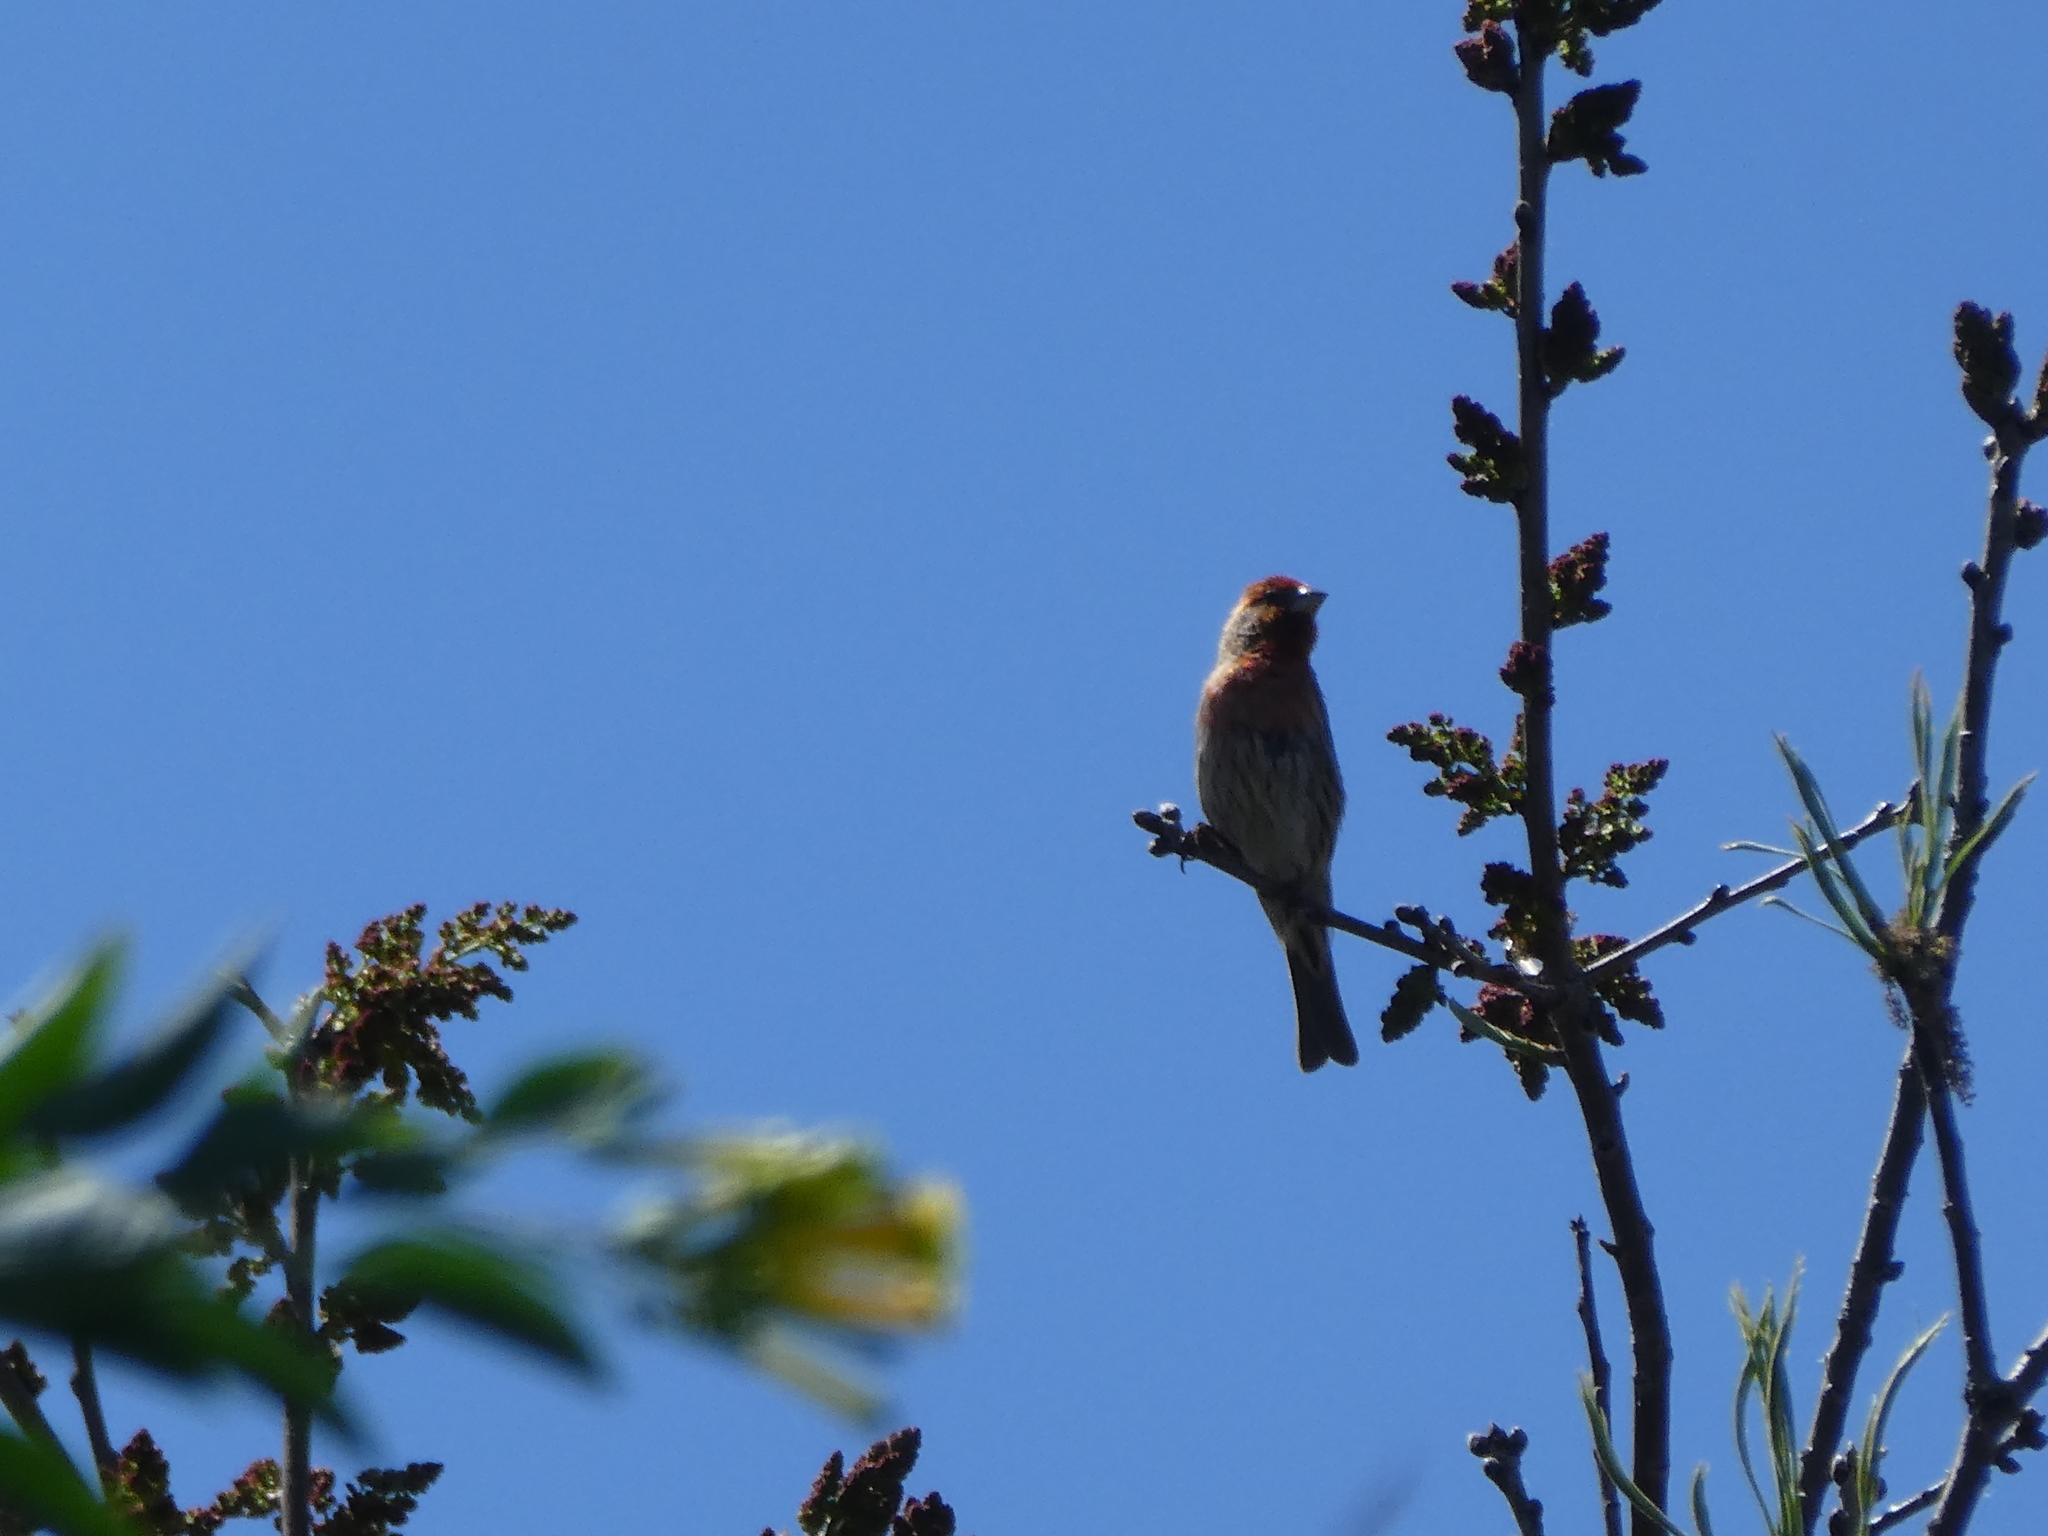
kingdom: Animalia
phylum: Chordata
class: Aves
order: Passeriformes
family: Fringillidae
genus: Haemorhous
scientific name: Haemorhous mexicanus
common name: House finch
